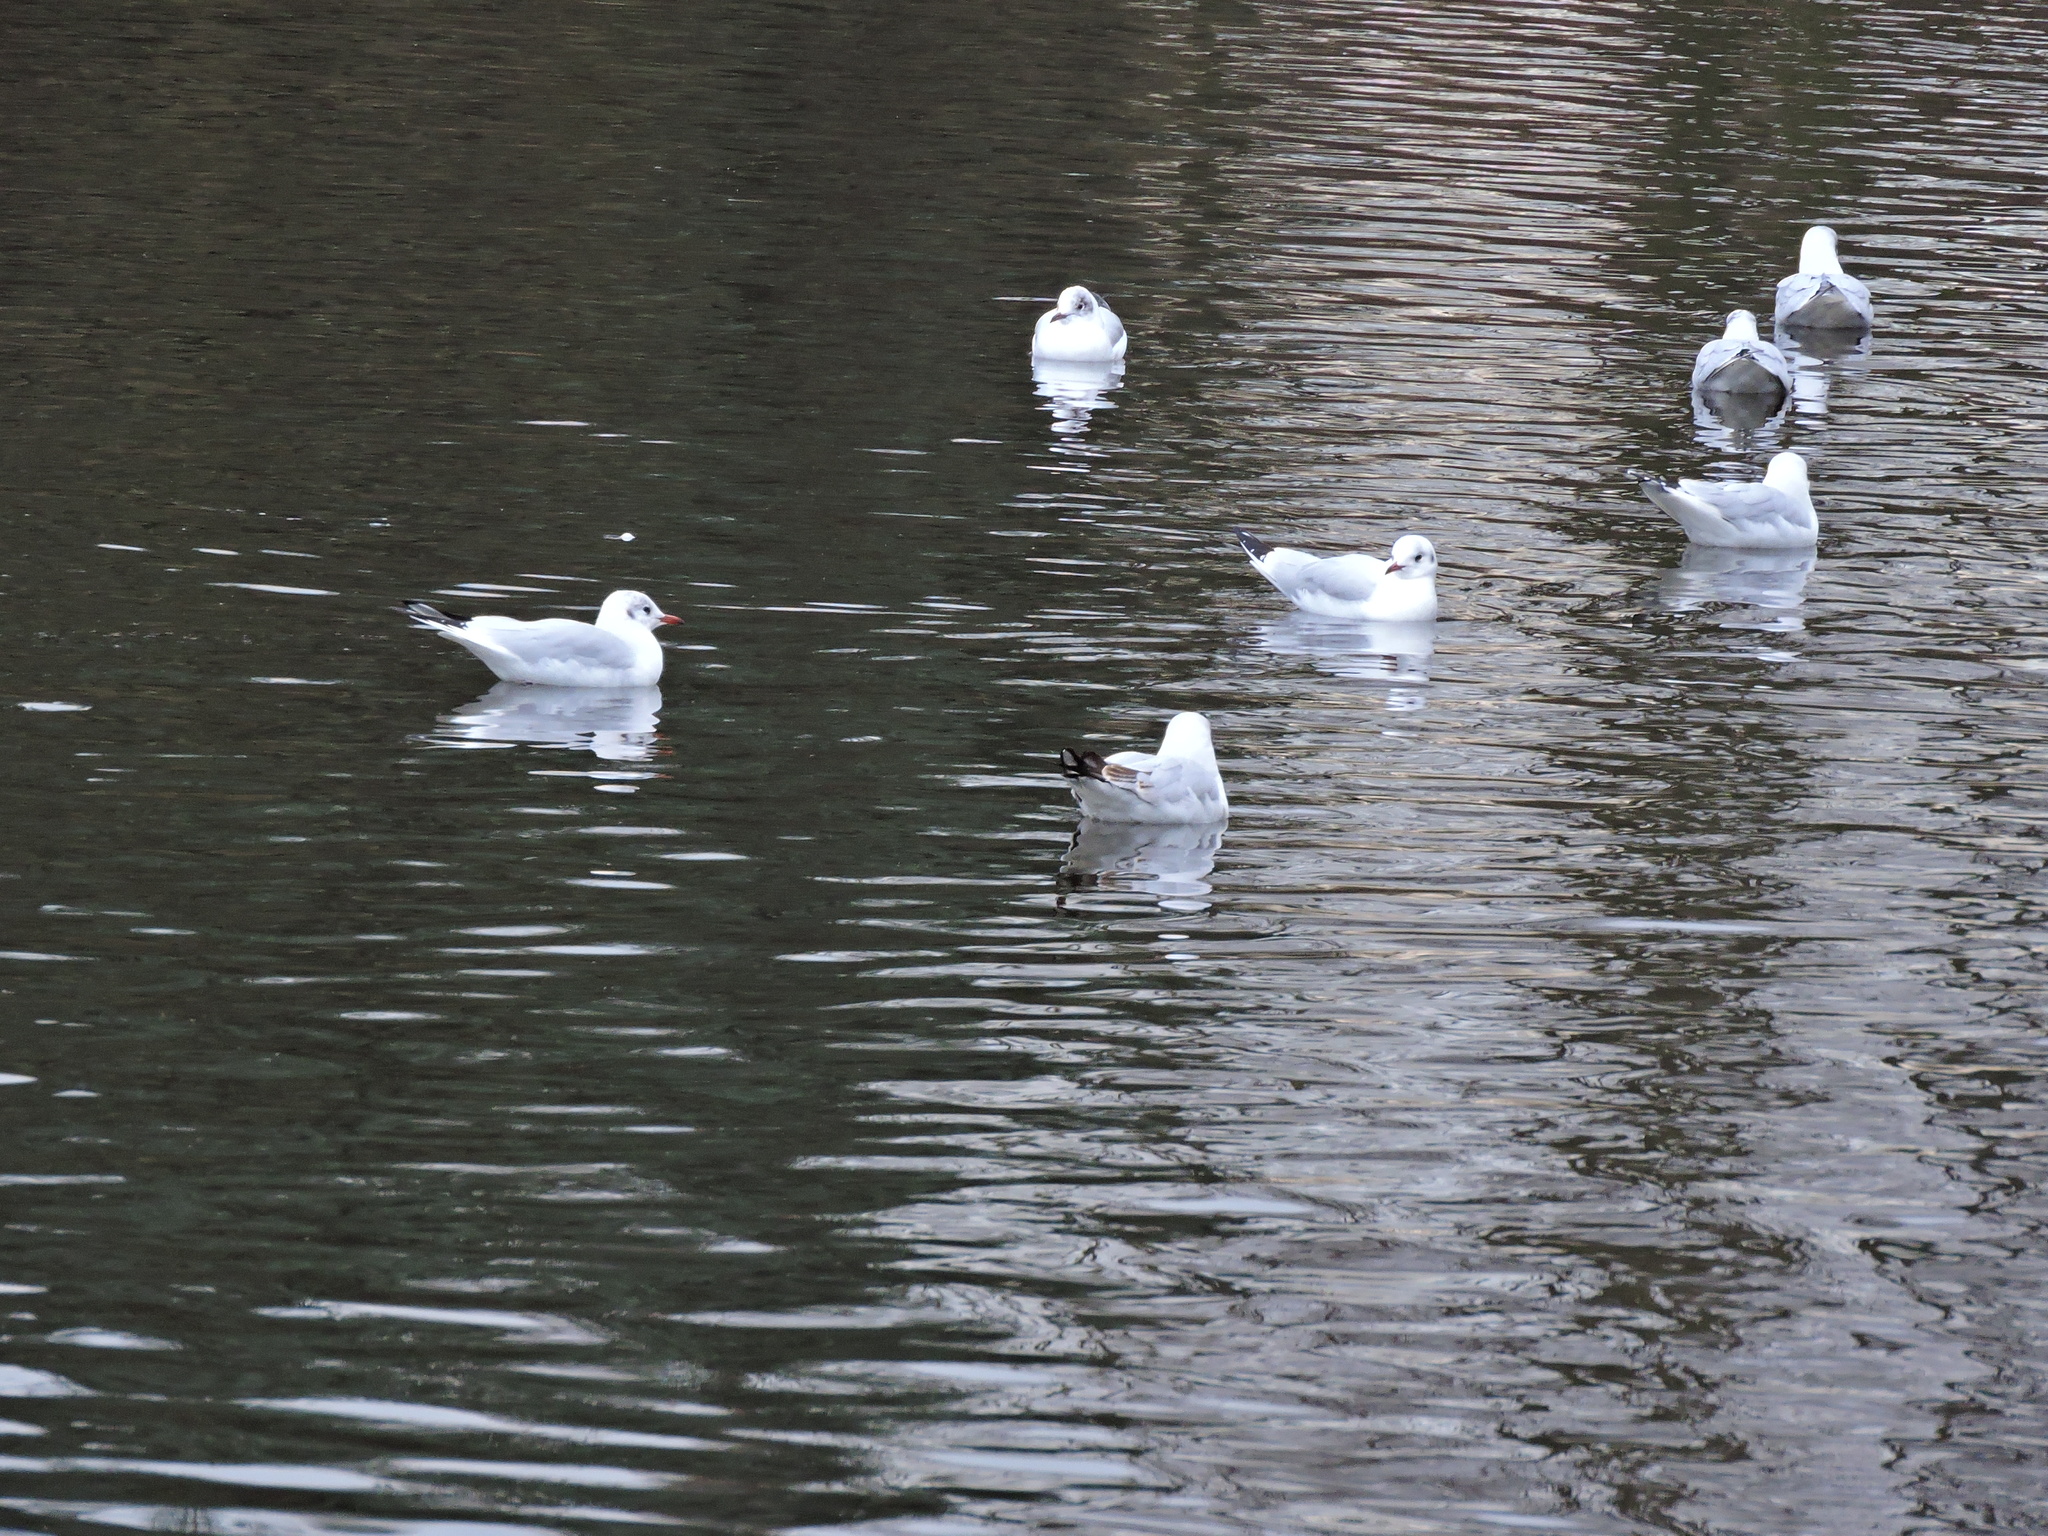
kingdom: Animalia
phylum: Chordata
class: Aves
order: Charadriiformes
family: Laridae
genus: Chroicocephalus
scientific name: Chroicocephalus ridibundus
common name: Black-headed gull
